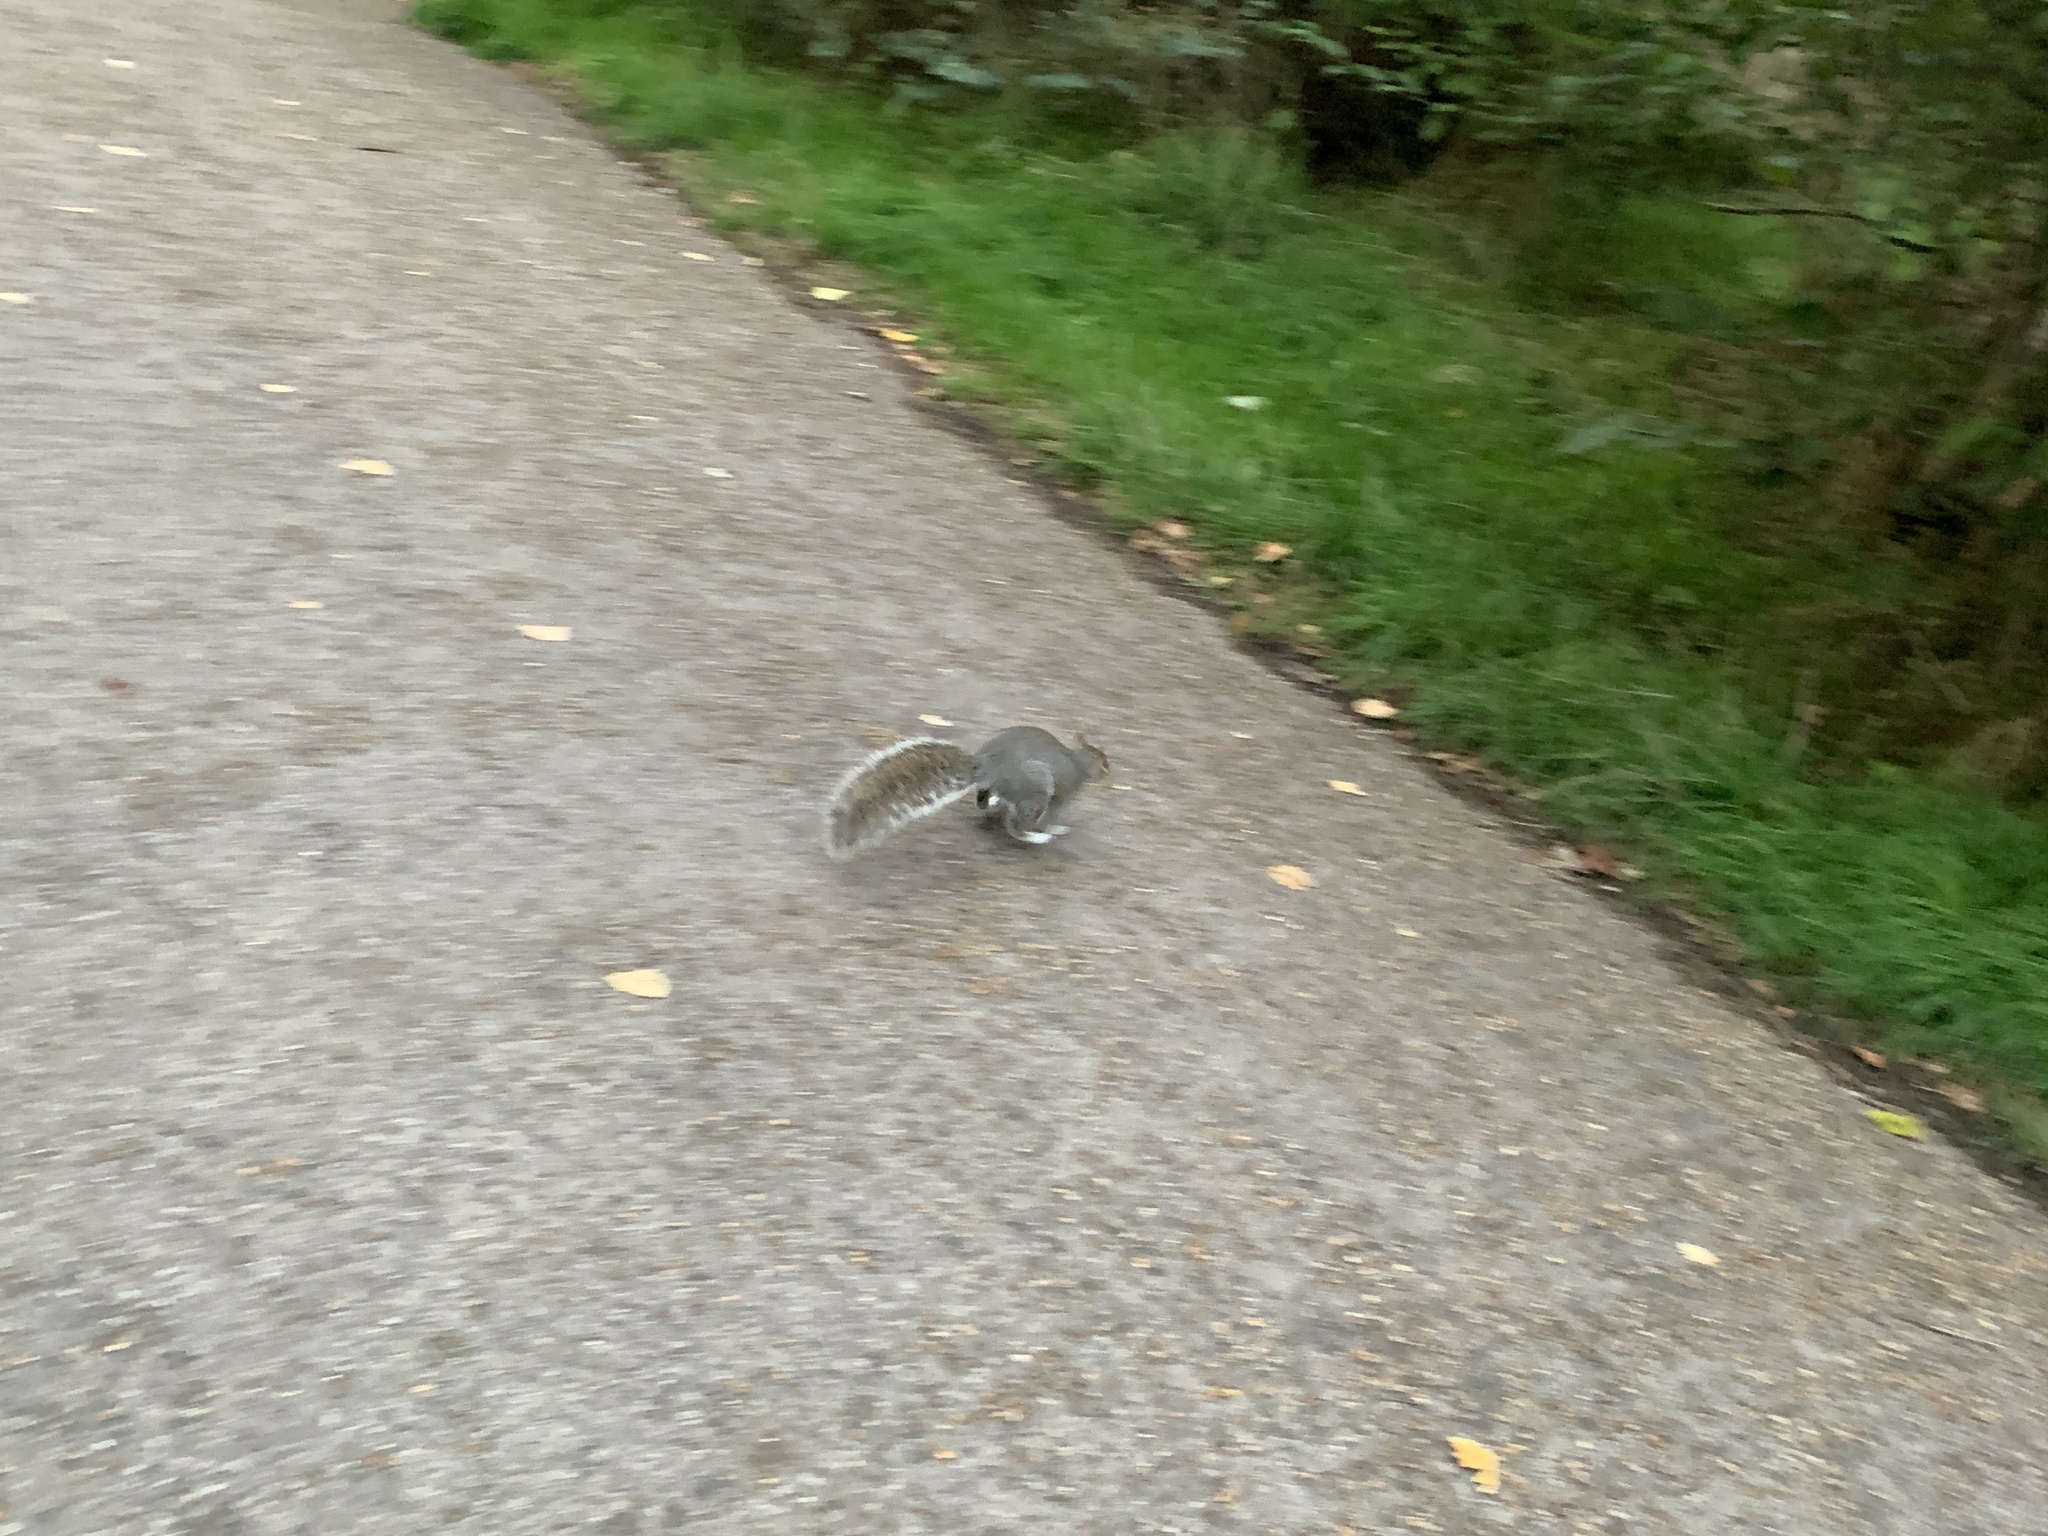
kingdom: Animalia
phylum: Chordata
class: Mammalia
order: Rodentia
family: Sciuridae
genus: Sciurus
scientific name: Sciurus carolinensis
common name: Eastern gray squirrel
